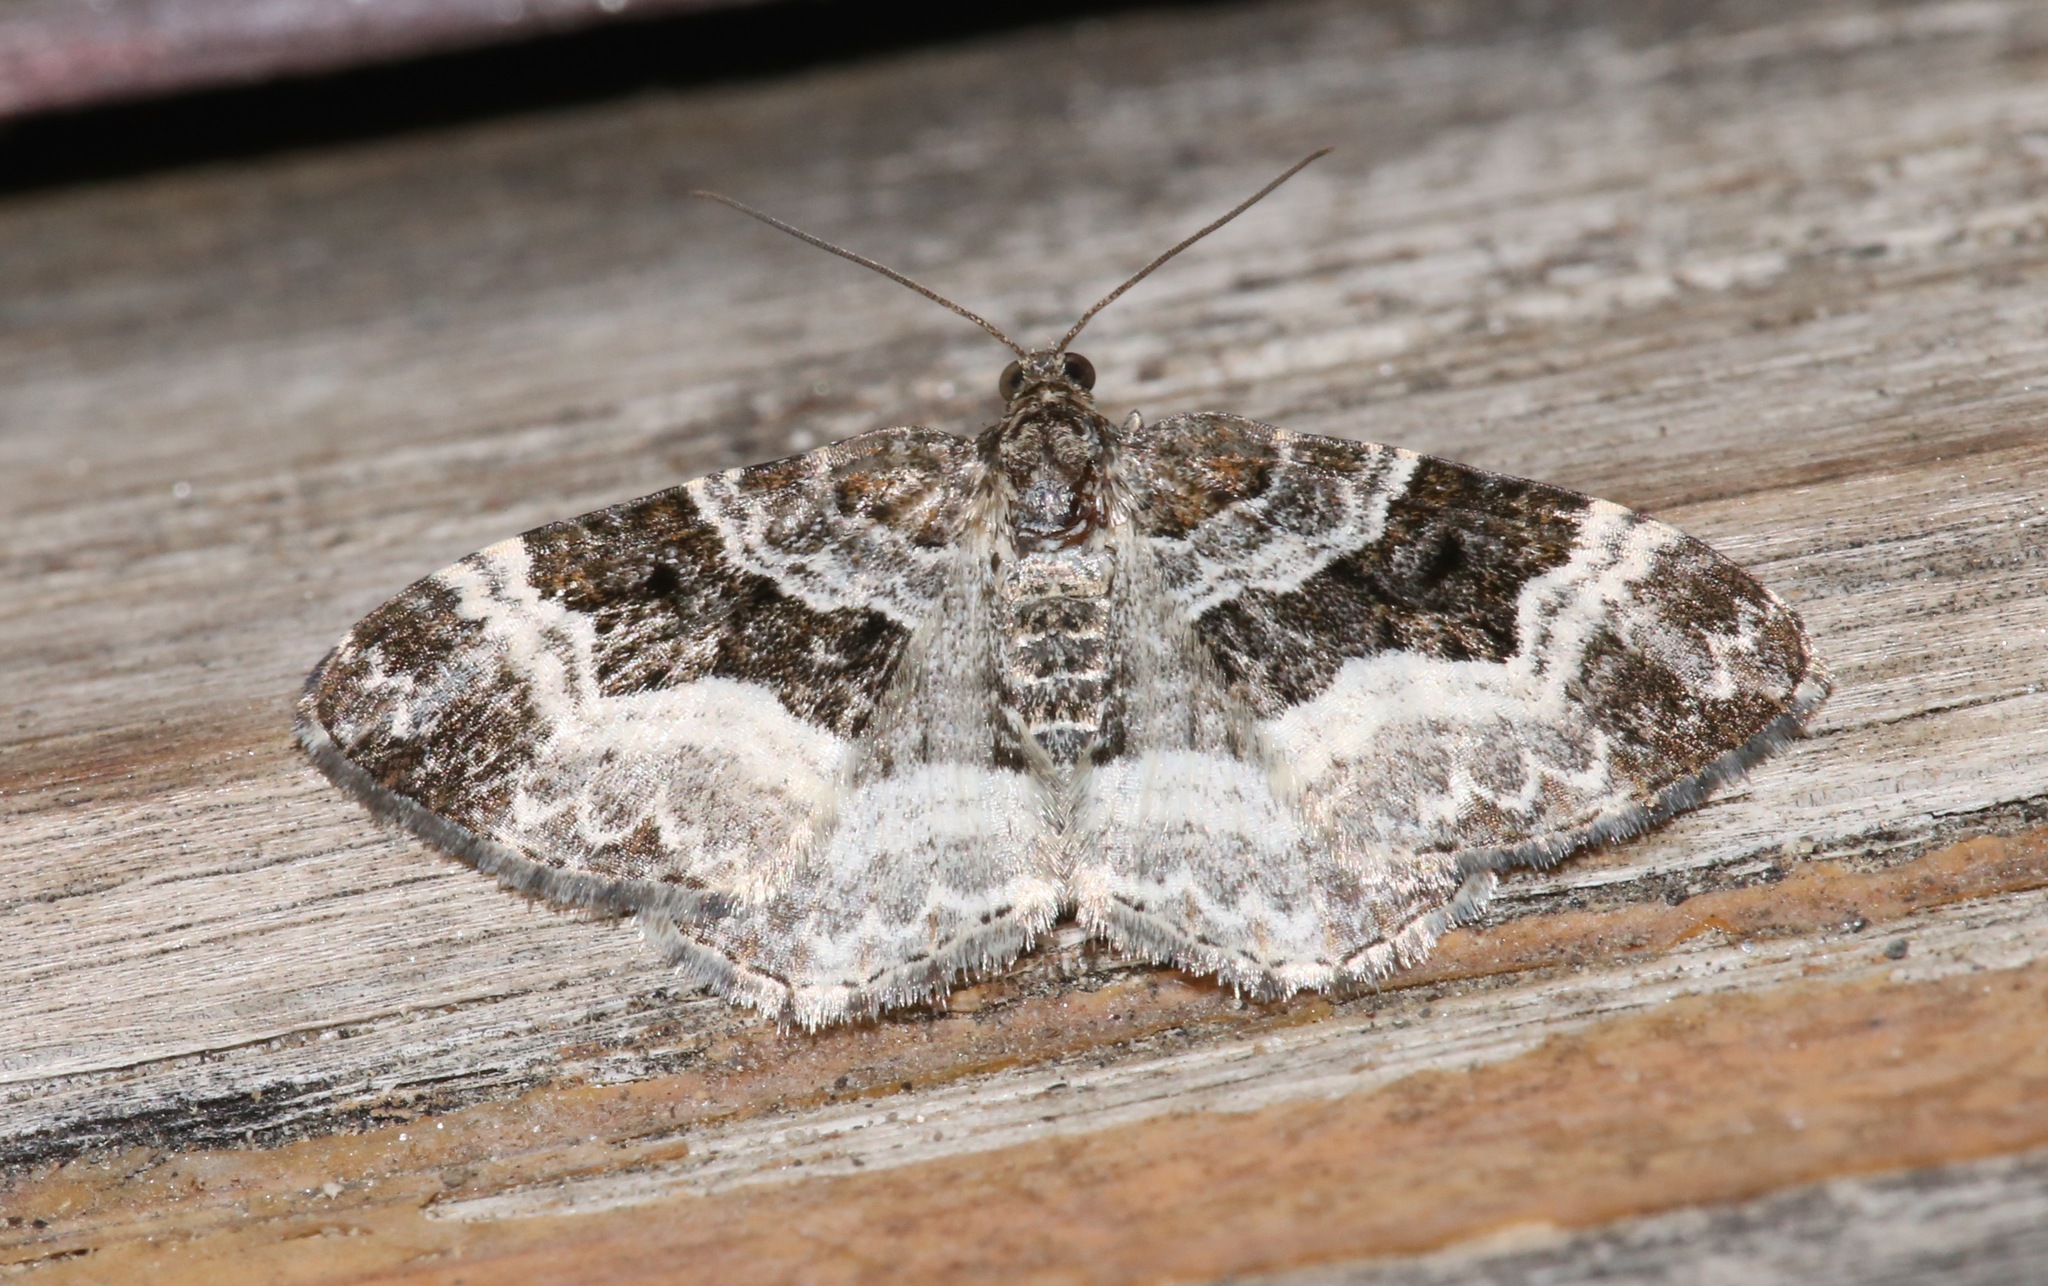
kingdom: Animalia
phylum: Arthropoda
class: Insecta
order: Lepidoptera
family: Geometridae
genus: Epirrhoe
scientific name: Epirrhoe alternata
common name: Common carpet
